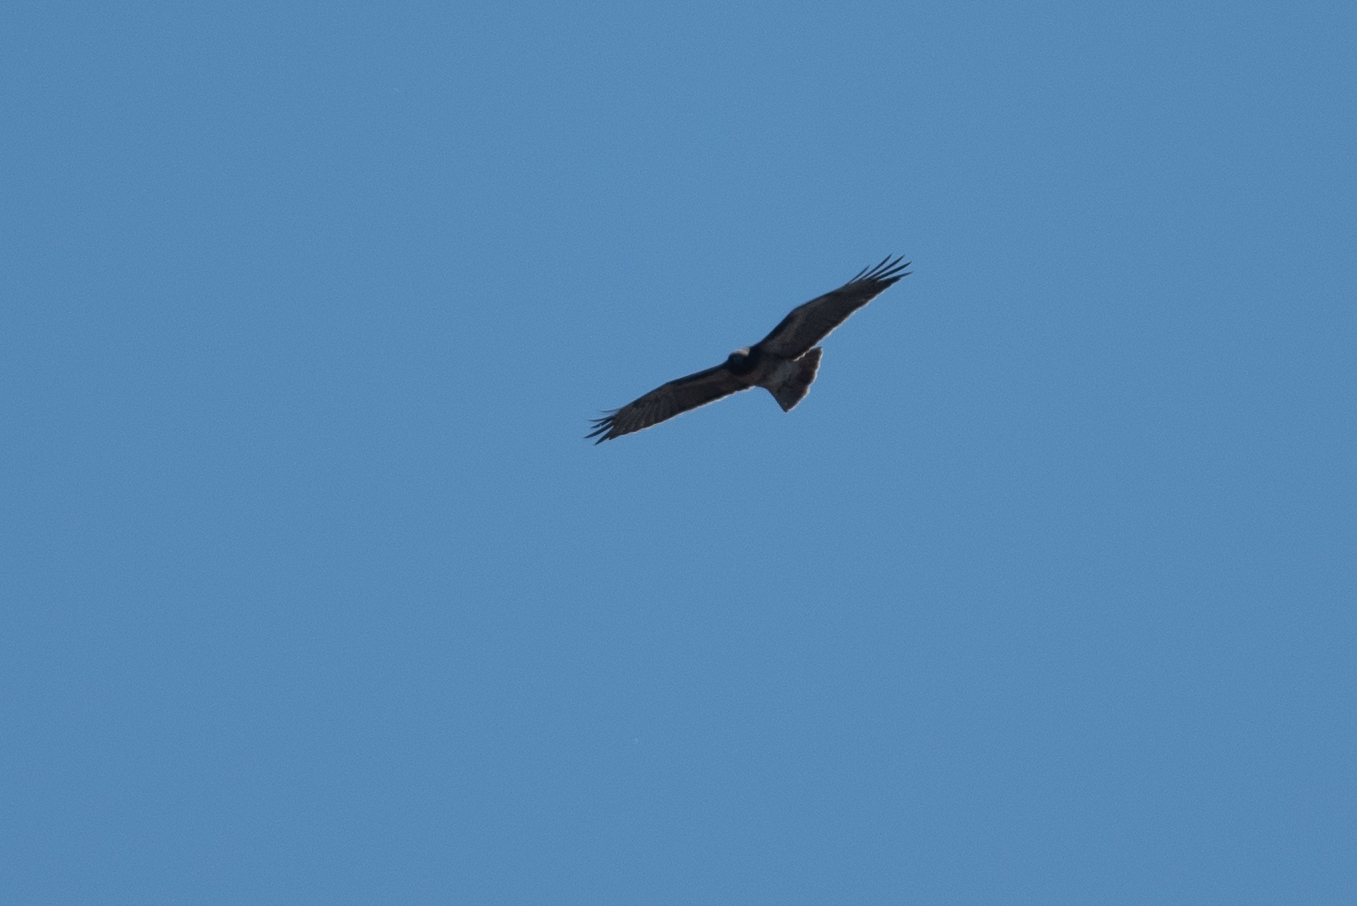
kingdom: Animalia
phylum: Chordata
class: Aves
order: Accipitriformes
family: Accipitridae
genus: Buteo
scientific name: Buteo jamaicensis
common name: Red-tailed hawk
